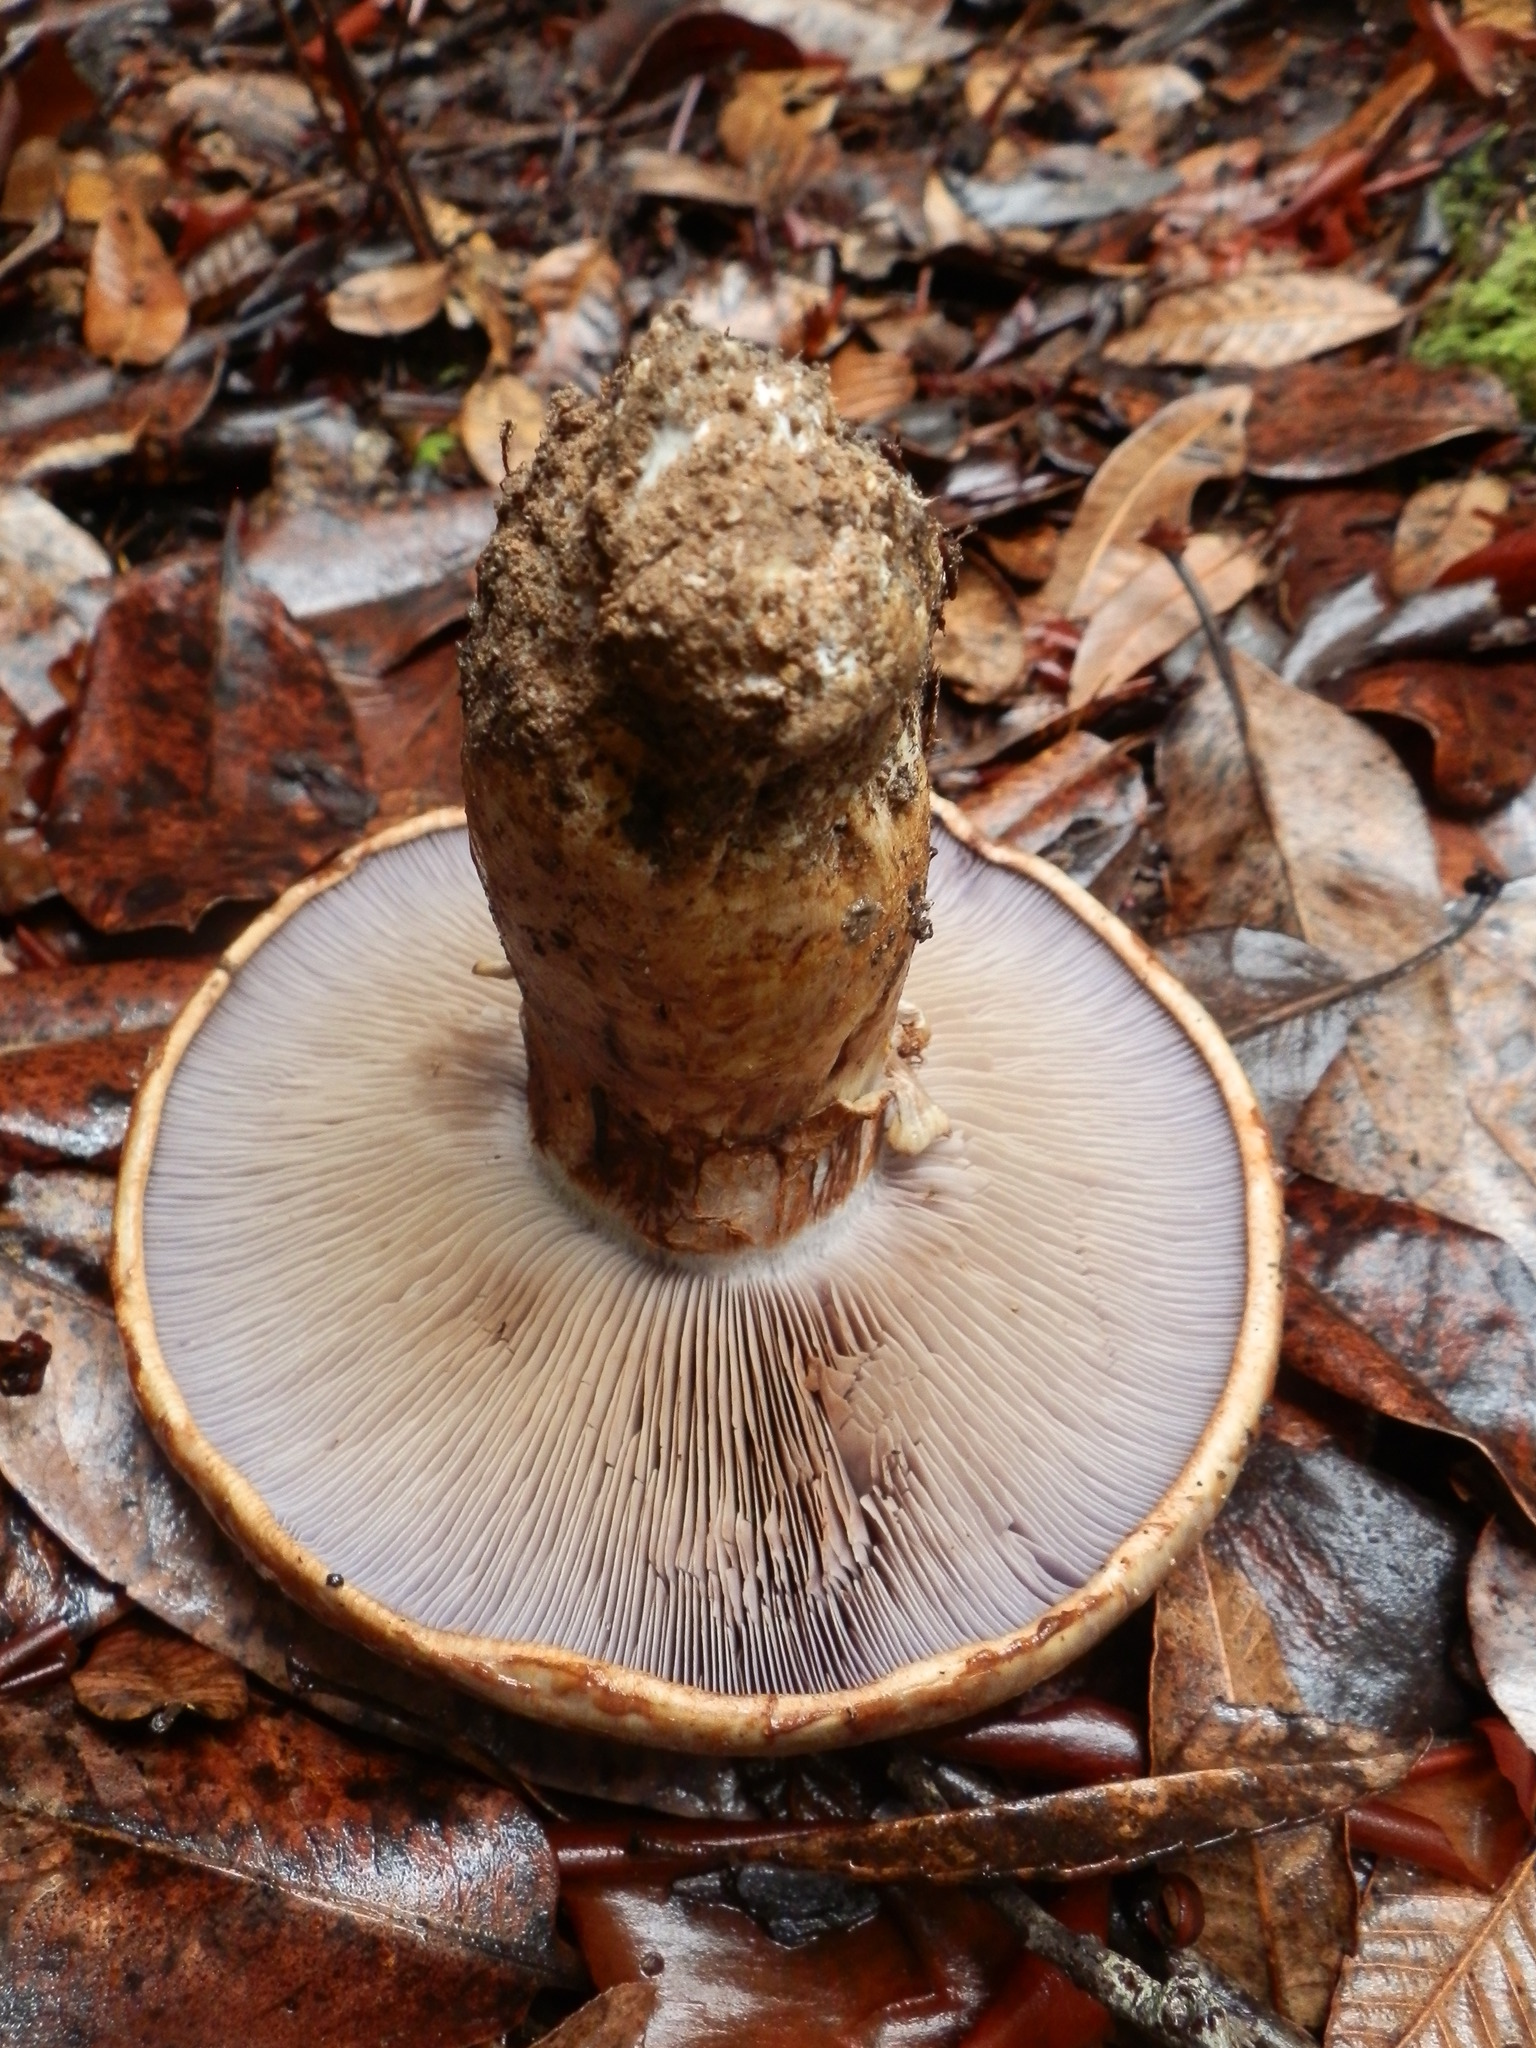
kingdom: Fungi
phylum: Basidiomycota
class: Agaricomycetes
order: Agaricales
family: Cortinariaceae
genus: Phlegmacium
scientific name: Phlegmacium ponderosum
